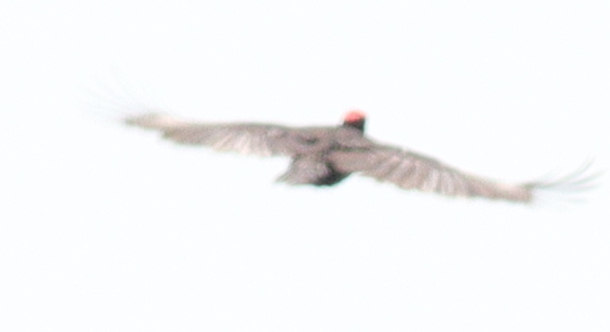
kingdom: Animalia
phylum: Chordata
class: Aves
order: Piciformes
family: Picidae
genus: Dryocopus
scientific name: Dryocopus martius
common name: Black woodpecker
